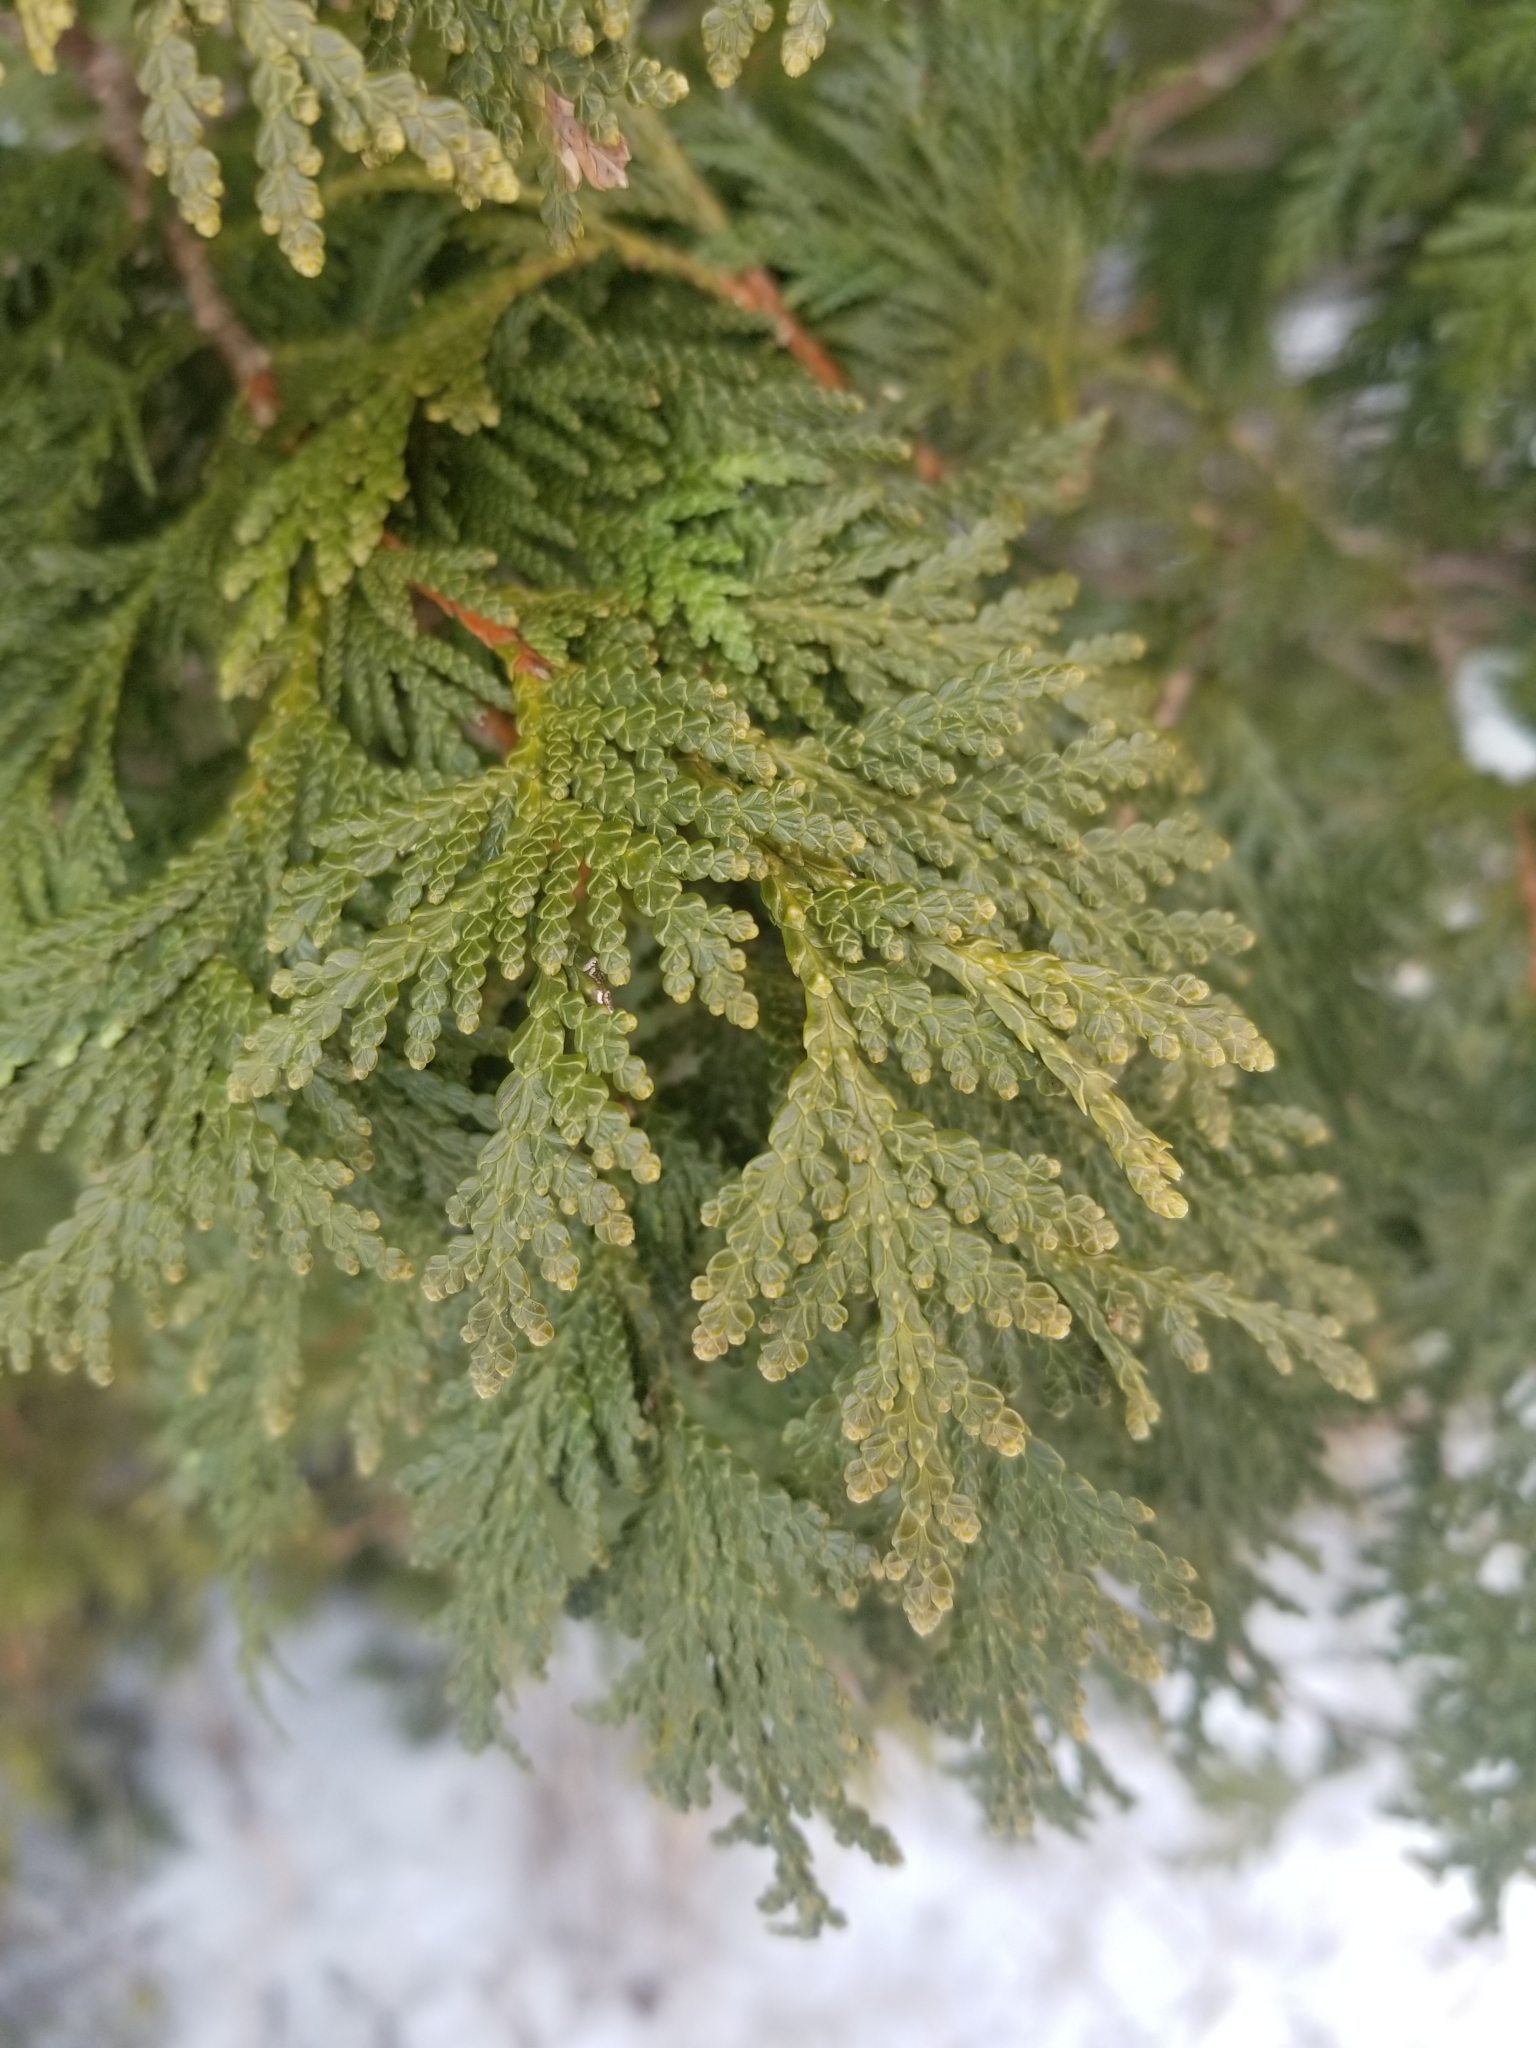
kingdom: Plantae
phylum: Tracheophyta
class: Pinopsida
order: Pinales
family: Cupressaceae
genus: Thuja
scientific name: Thuja occidentalis
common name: Northern white-cedar
